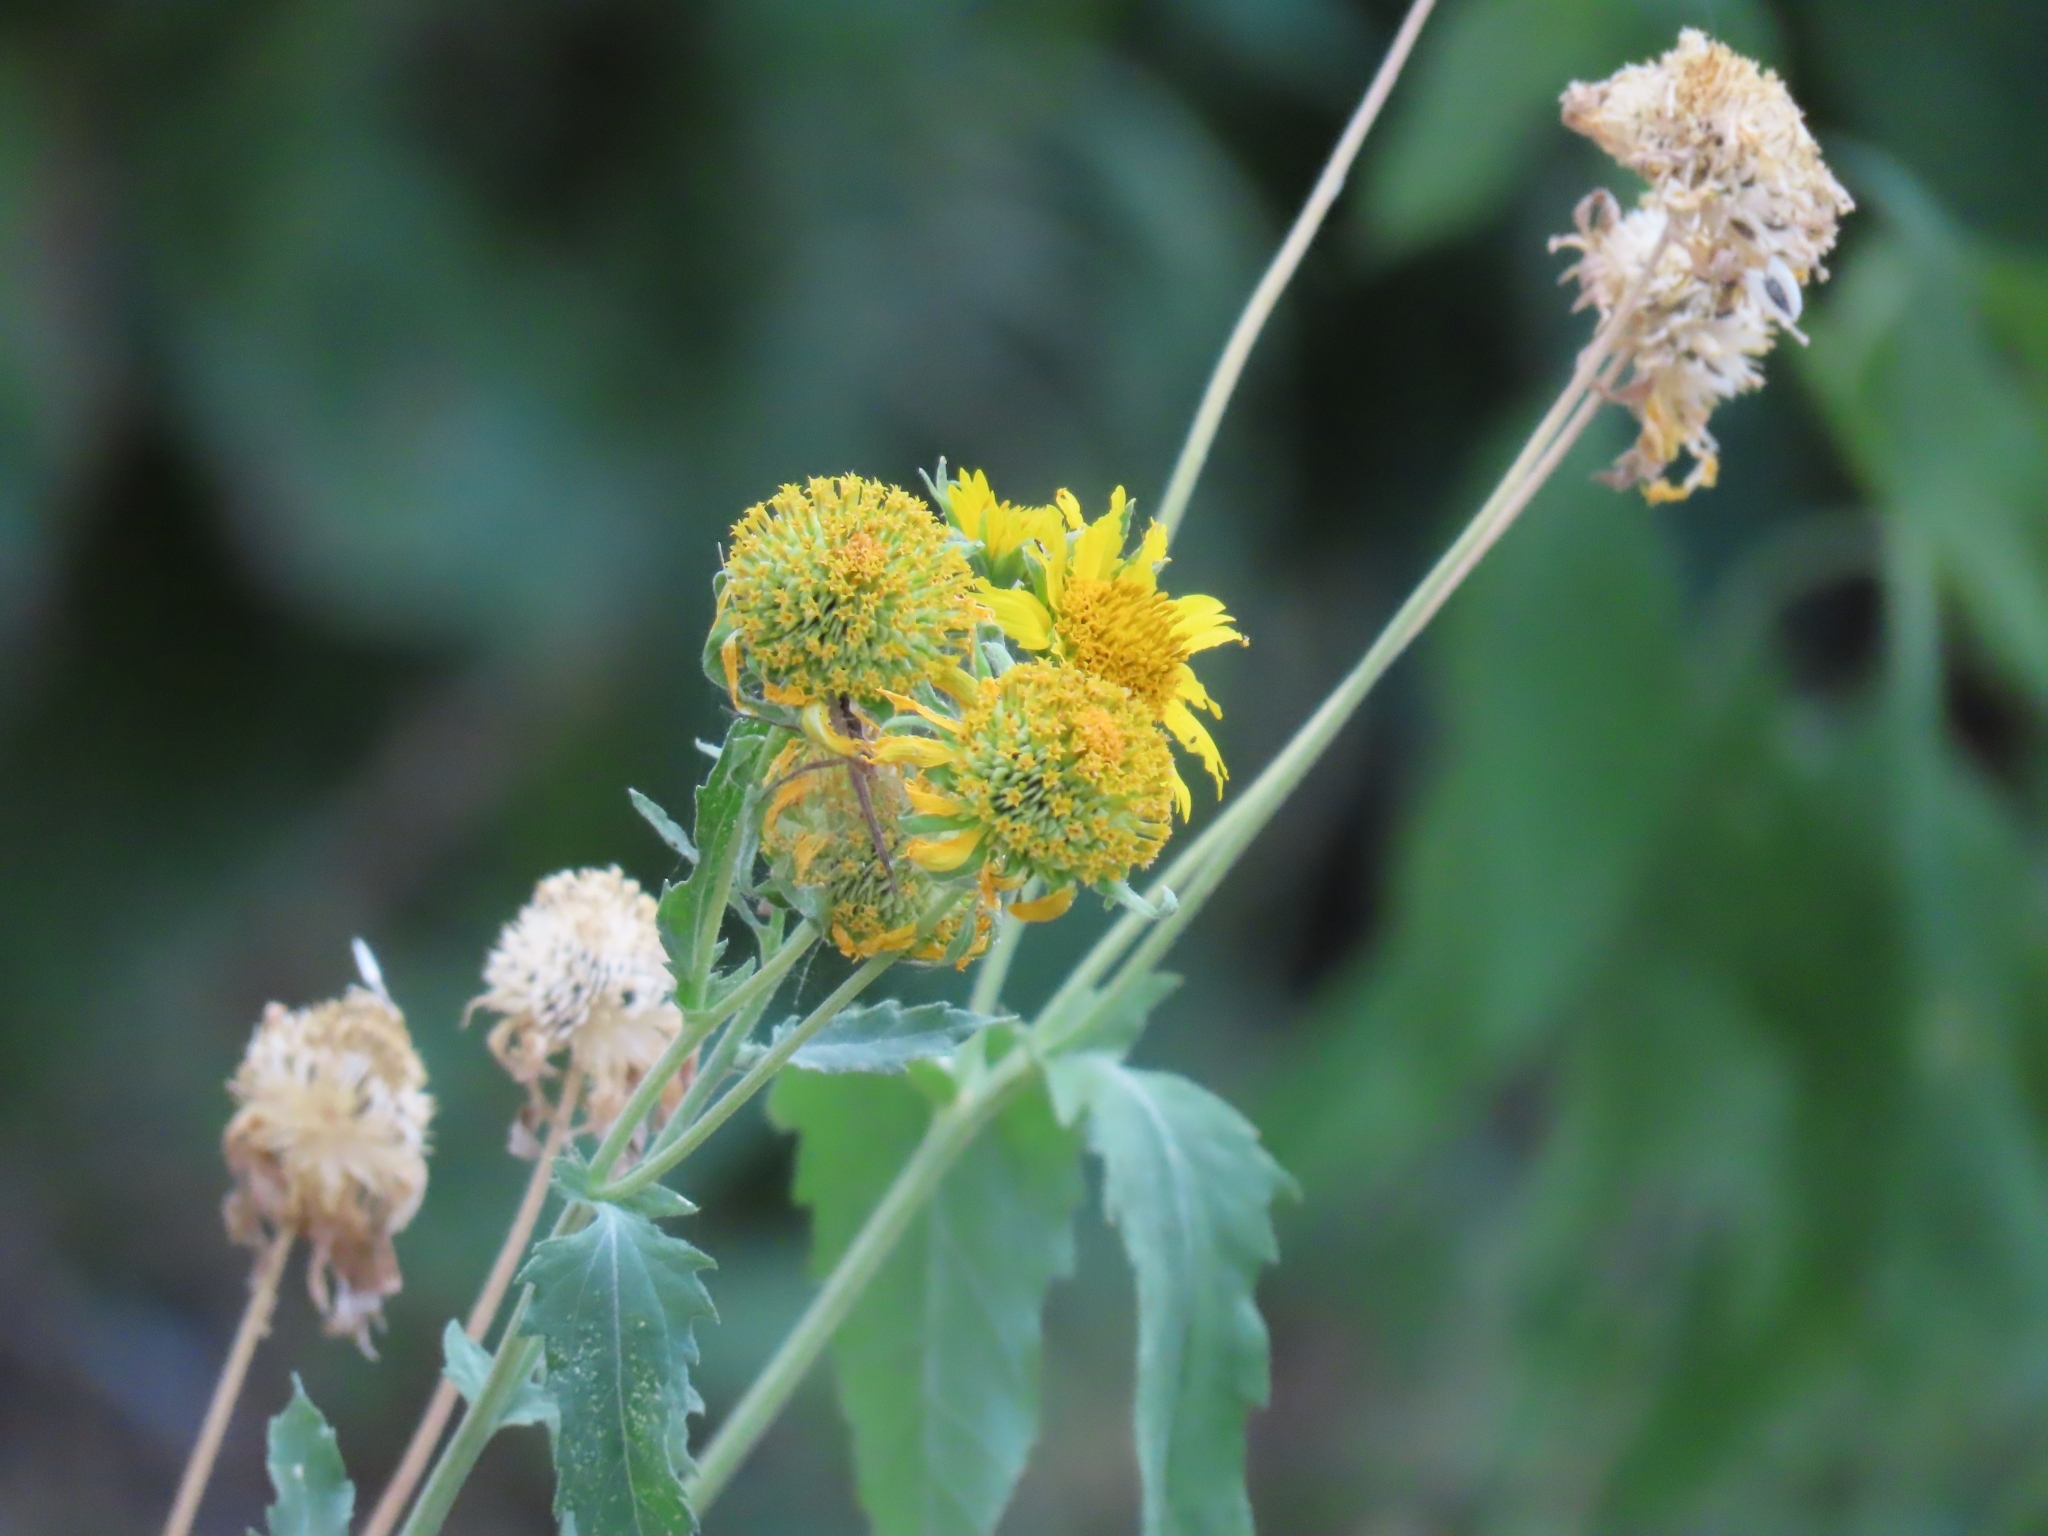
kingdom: Plantae
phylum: Tracheophyta
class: Magnoliopsida
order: Asterales
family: Asteraceae
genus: Verbesina
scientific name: Verbesina encelioides
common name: Golden crownbeard
